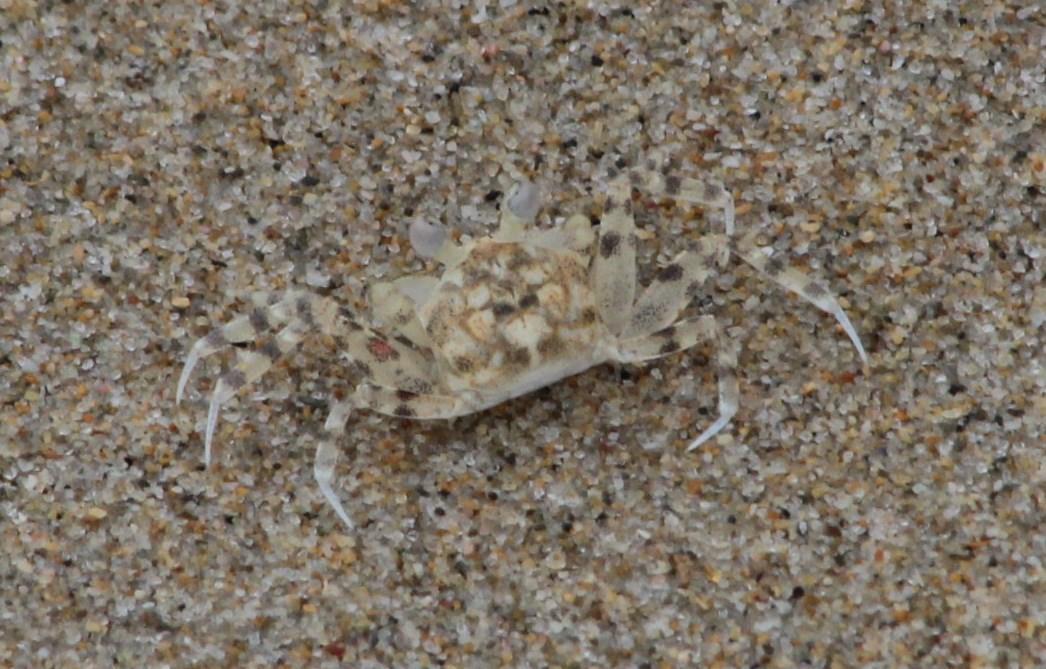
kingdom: Animalia
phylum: Arthropoda
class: Malacostraca
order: Decapoda
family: Ocypodidae
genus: Ocypode
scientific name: Ocypode
